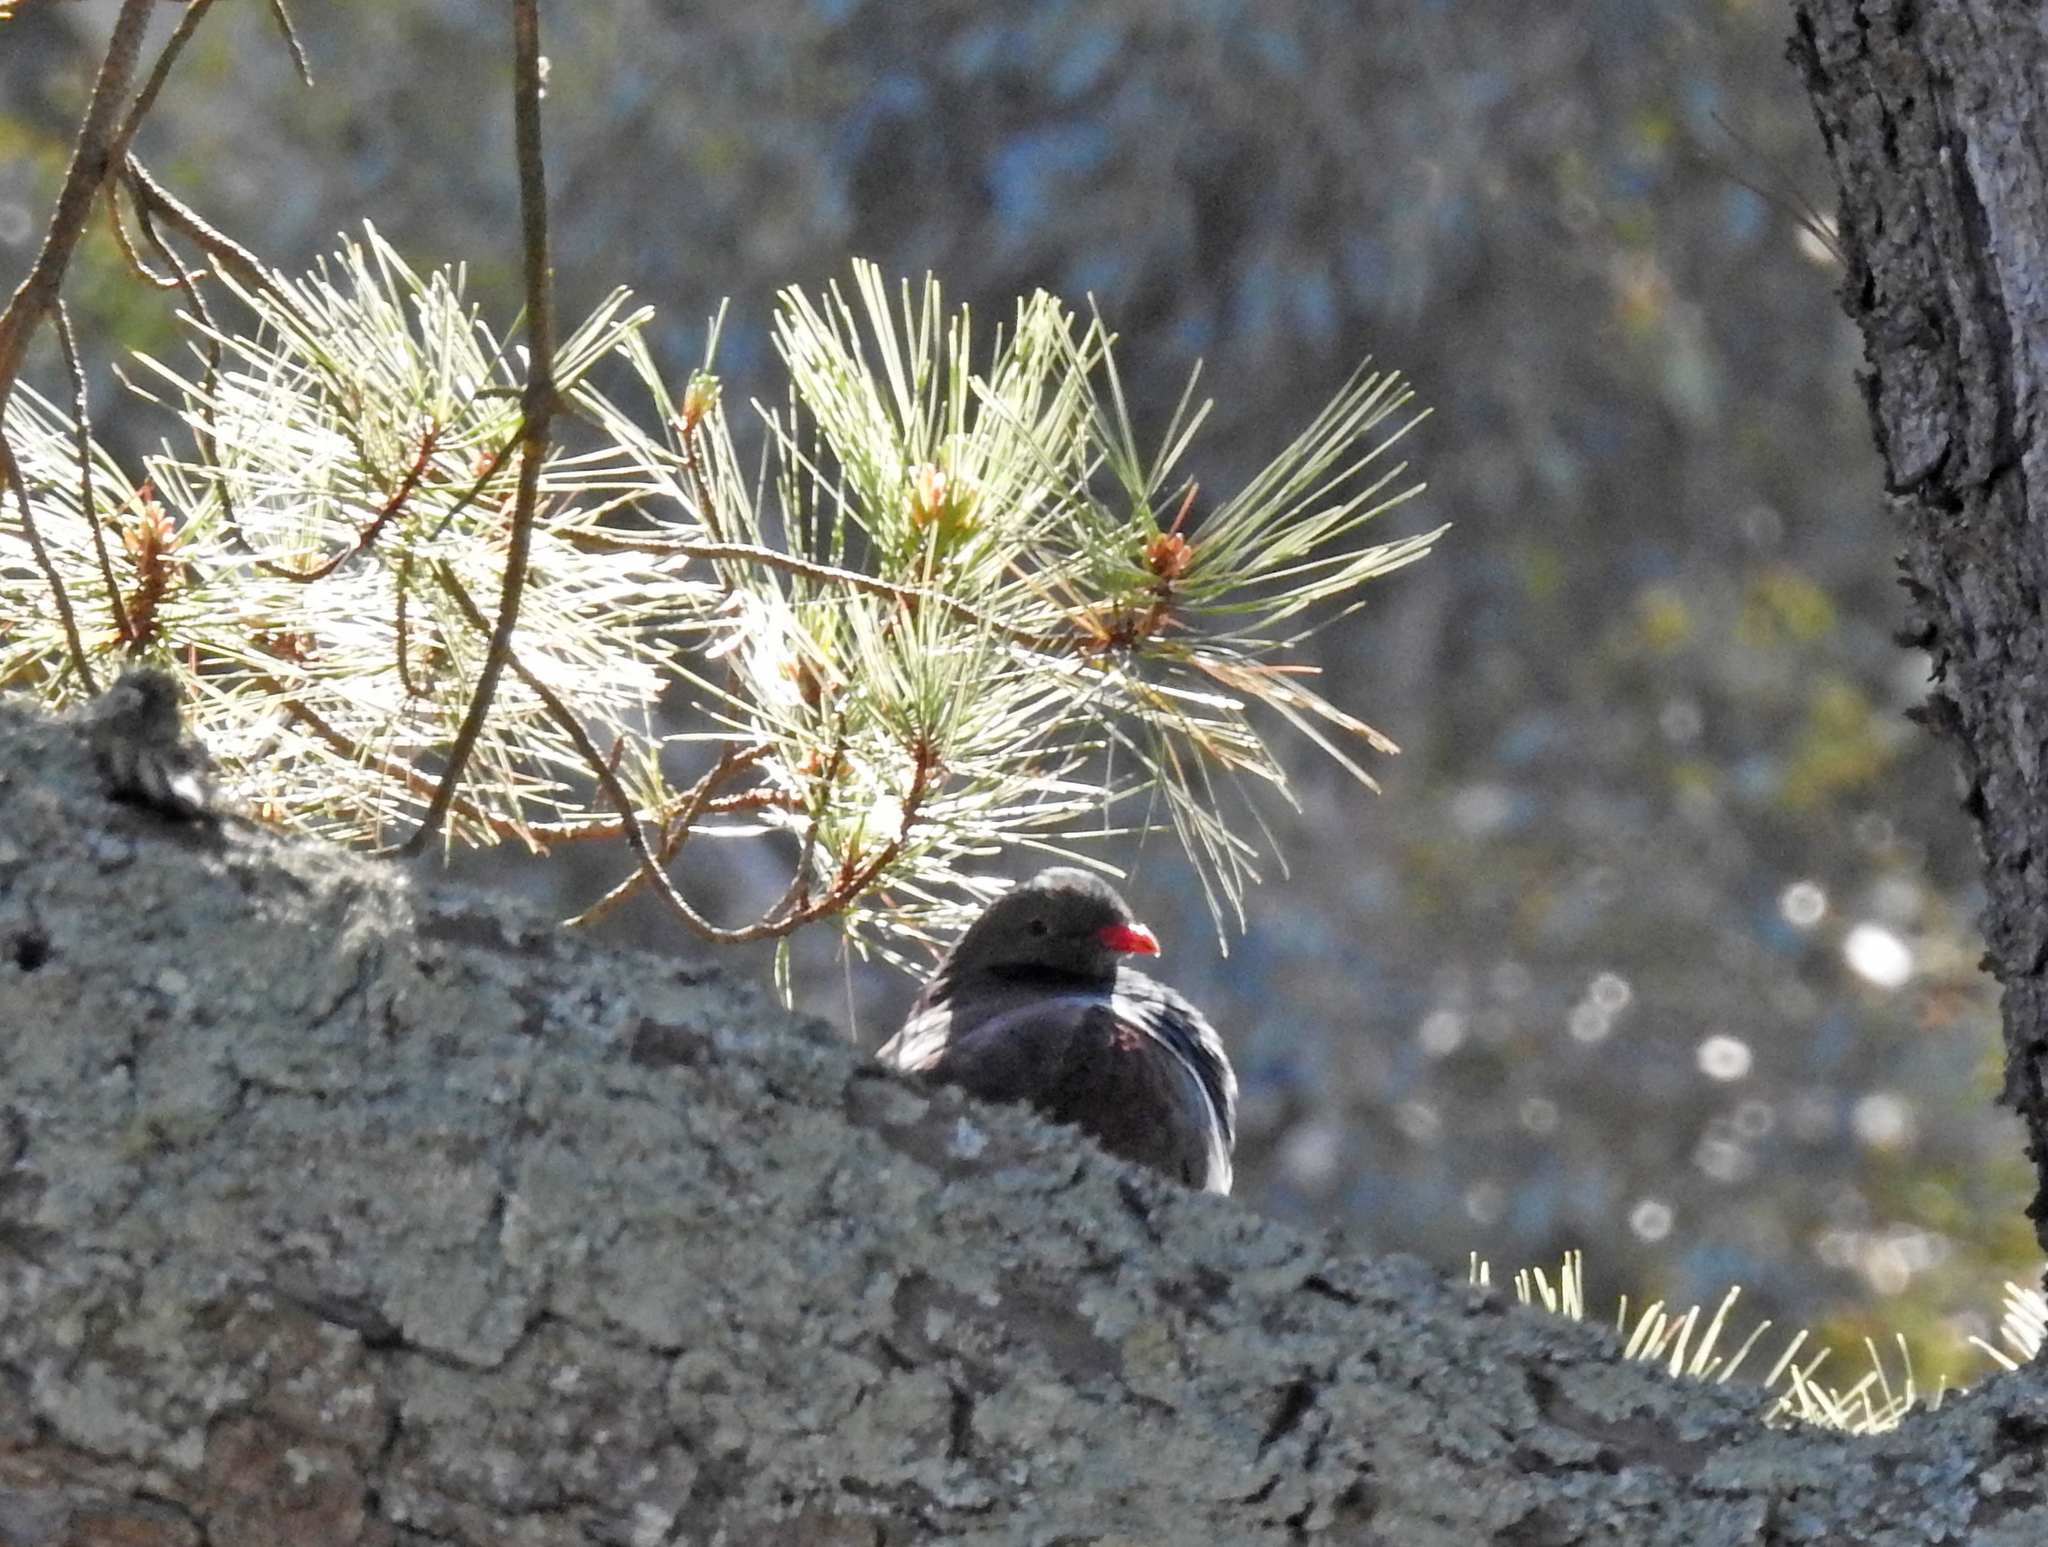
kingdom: Animalia
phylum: Chordata
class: Aves
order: Columbiformes
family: Columbidae
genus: Hemiphaga
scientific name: Hemiphaga novaeseelandiae
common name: New zealand pigeon
